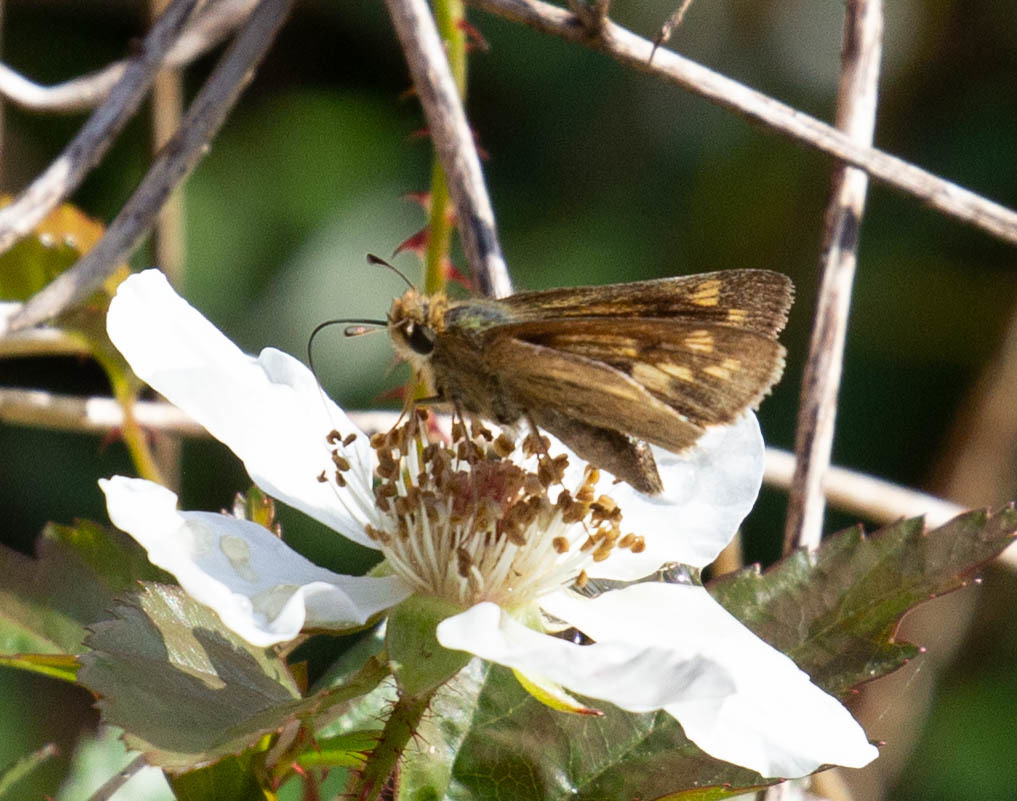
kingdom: Animalia
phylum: Arthropoda
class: Insecta
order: Lepidoptera
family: Hesperiidae
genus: Hylephila
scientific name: Hylephila phyleus
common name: Fiery skipper
